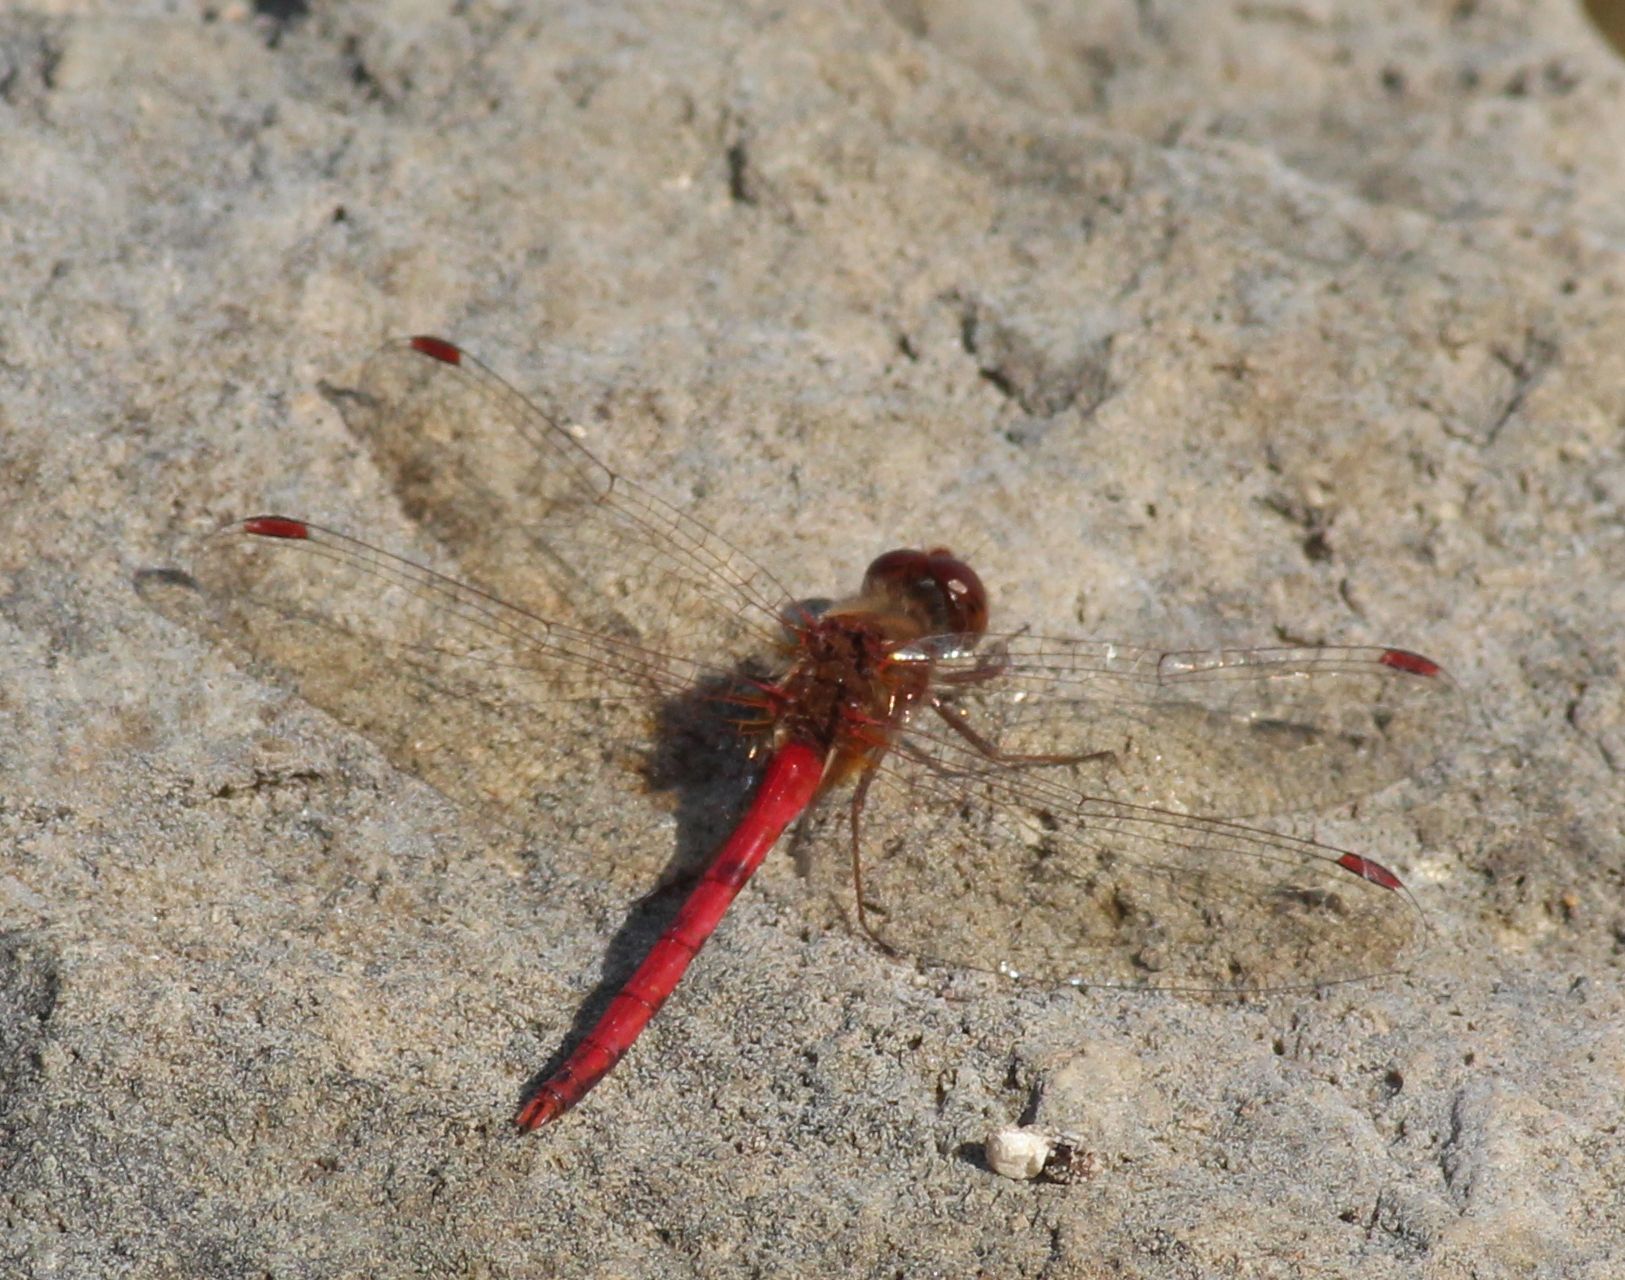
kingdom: Animalia
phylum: Arthropoda
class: Insecta
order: Odonata
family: Libellulidae
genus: Sympetrum
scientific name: Sympetrum vicinum
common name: Autumn meadowhawk
